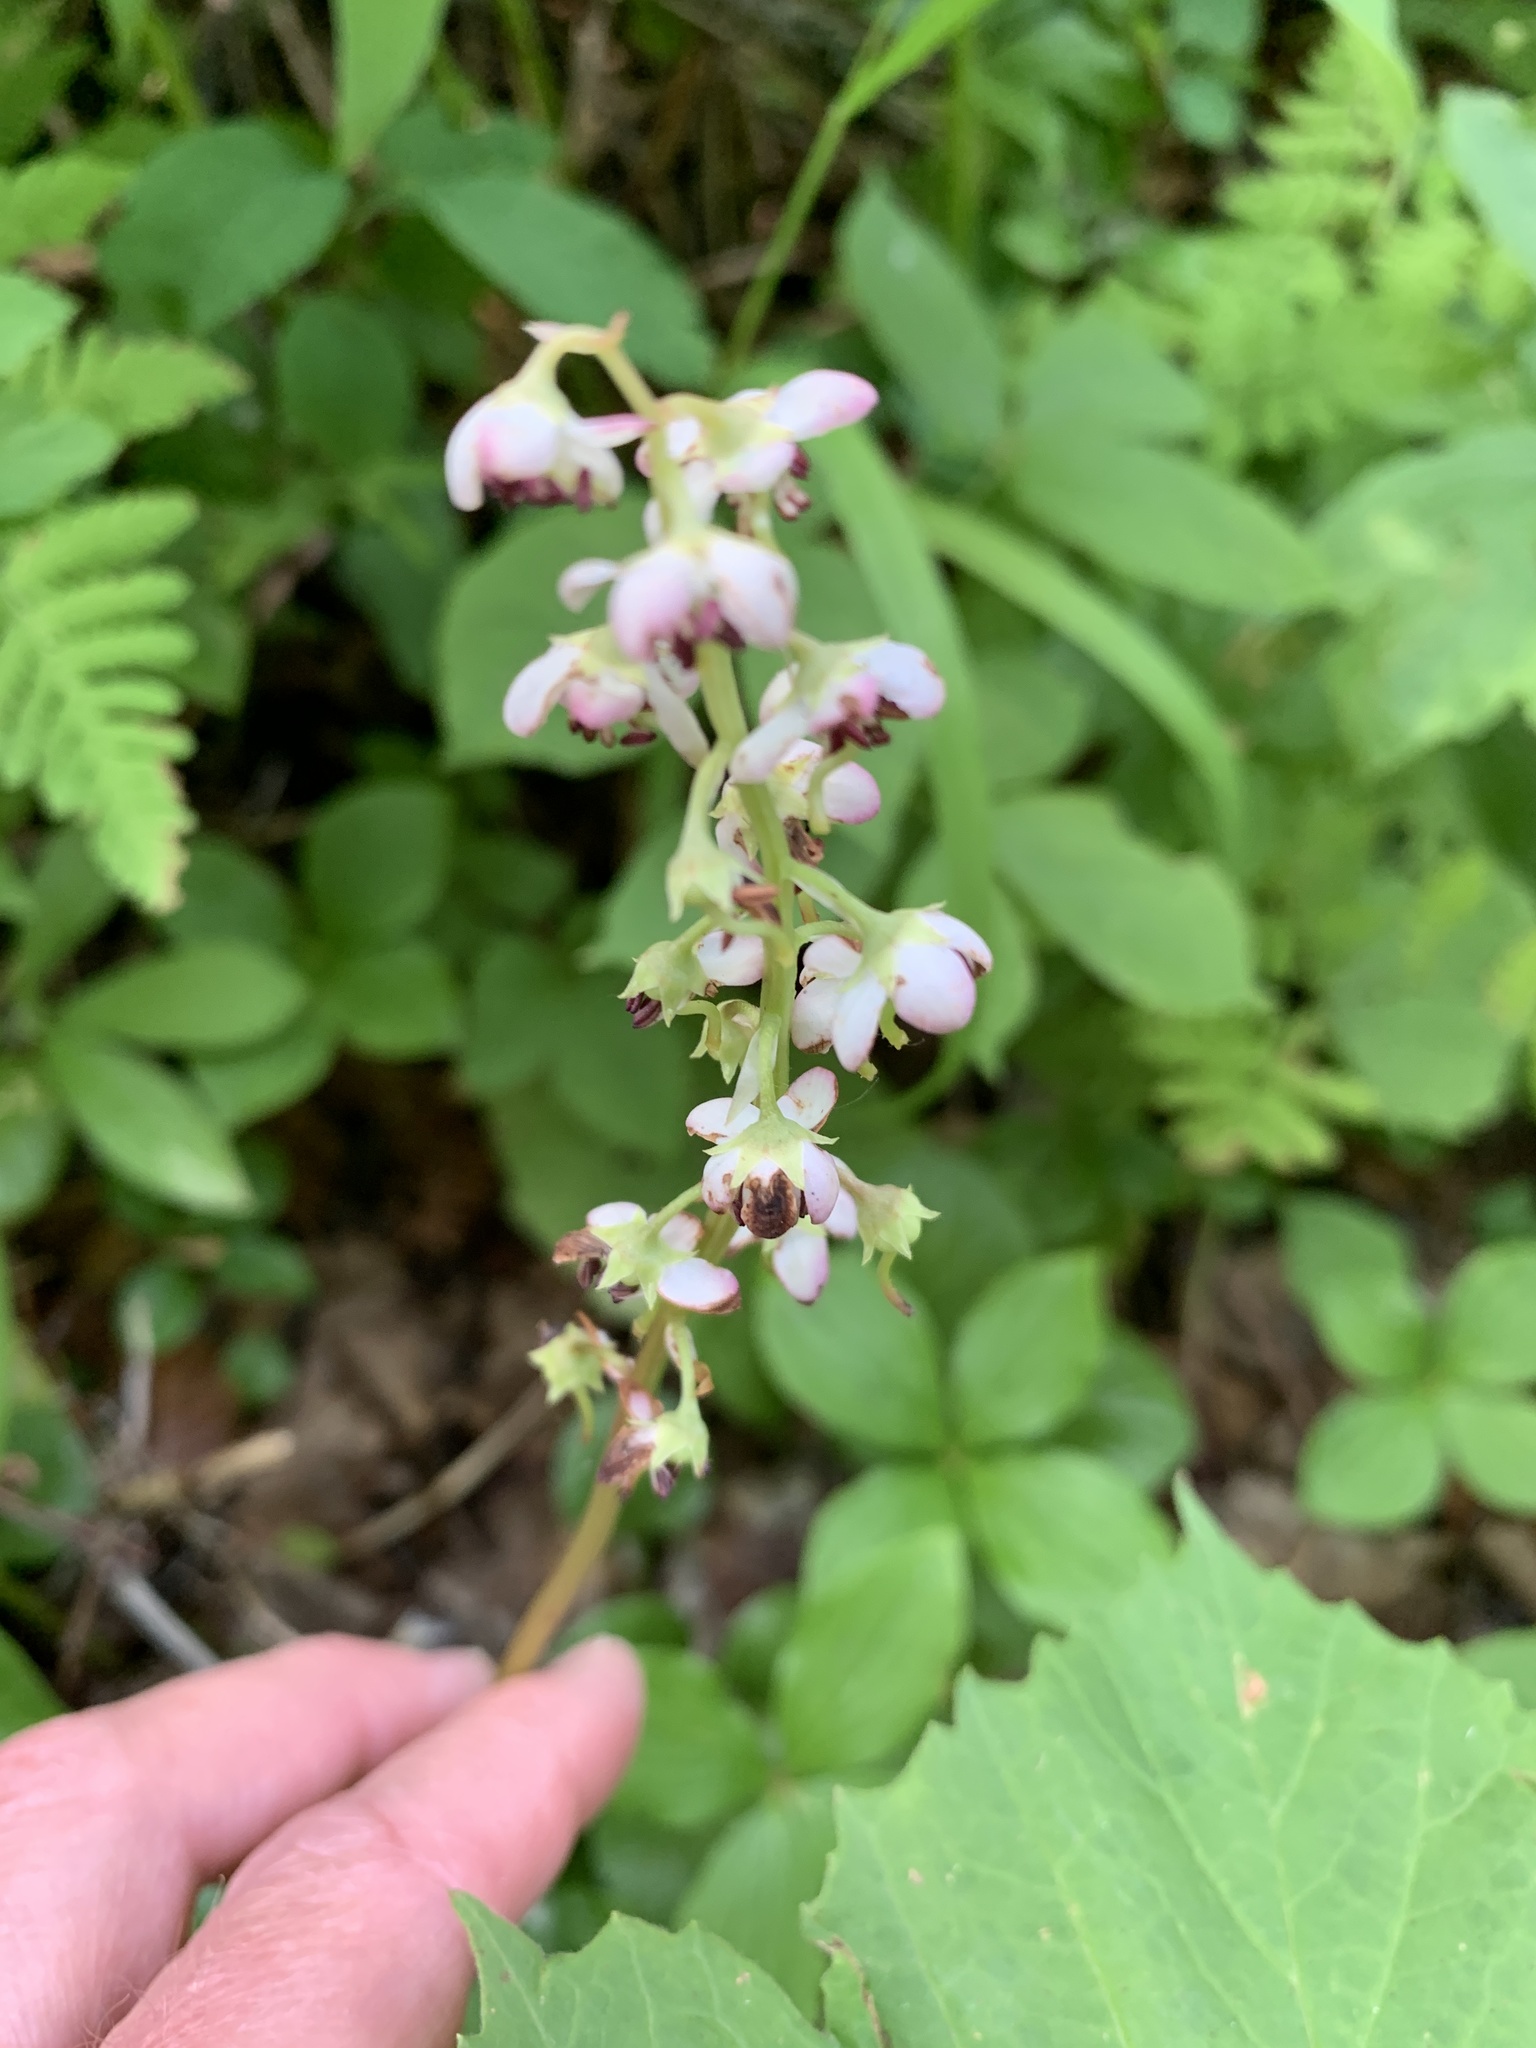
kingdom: Plantae
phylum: Tracheophyta
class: Magnoliopsida
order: Ericales
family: Ericaceae
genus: Pyrola
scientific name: Pyrola asarifolia
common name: Bog wintergreen
